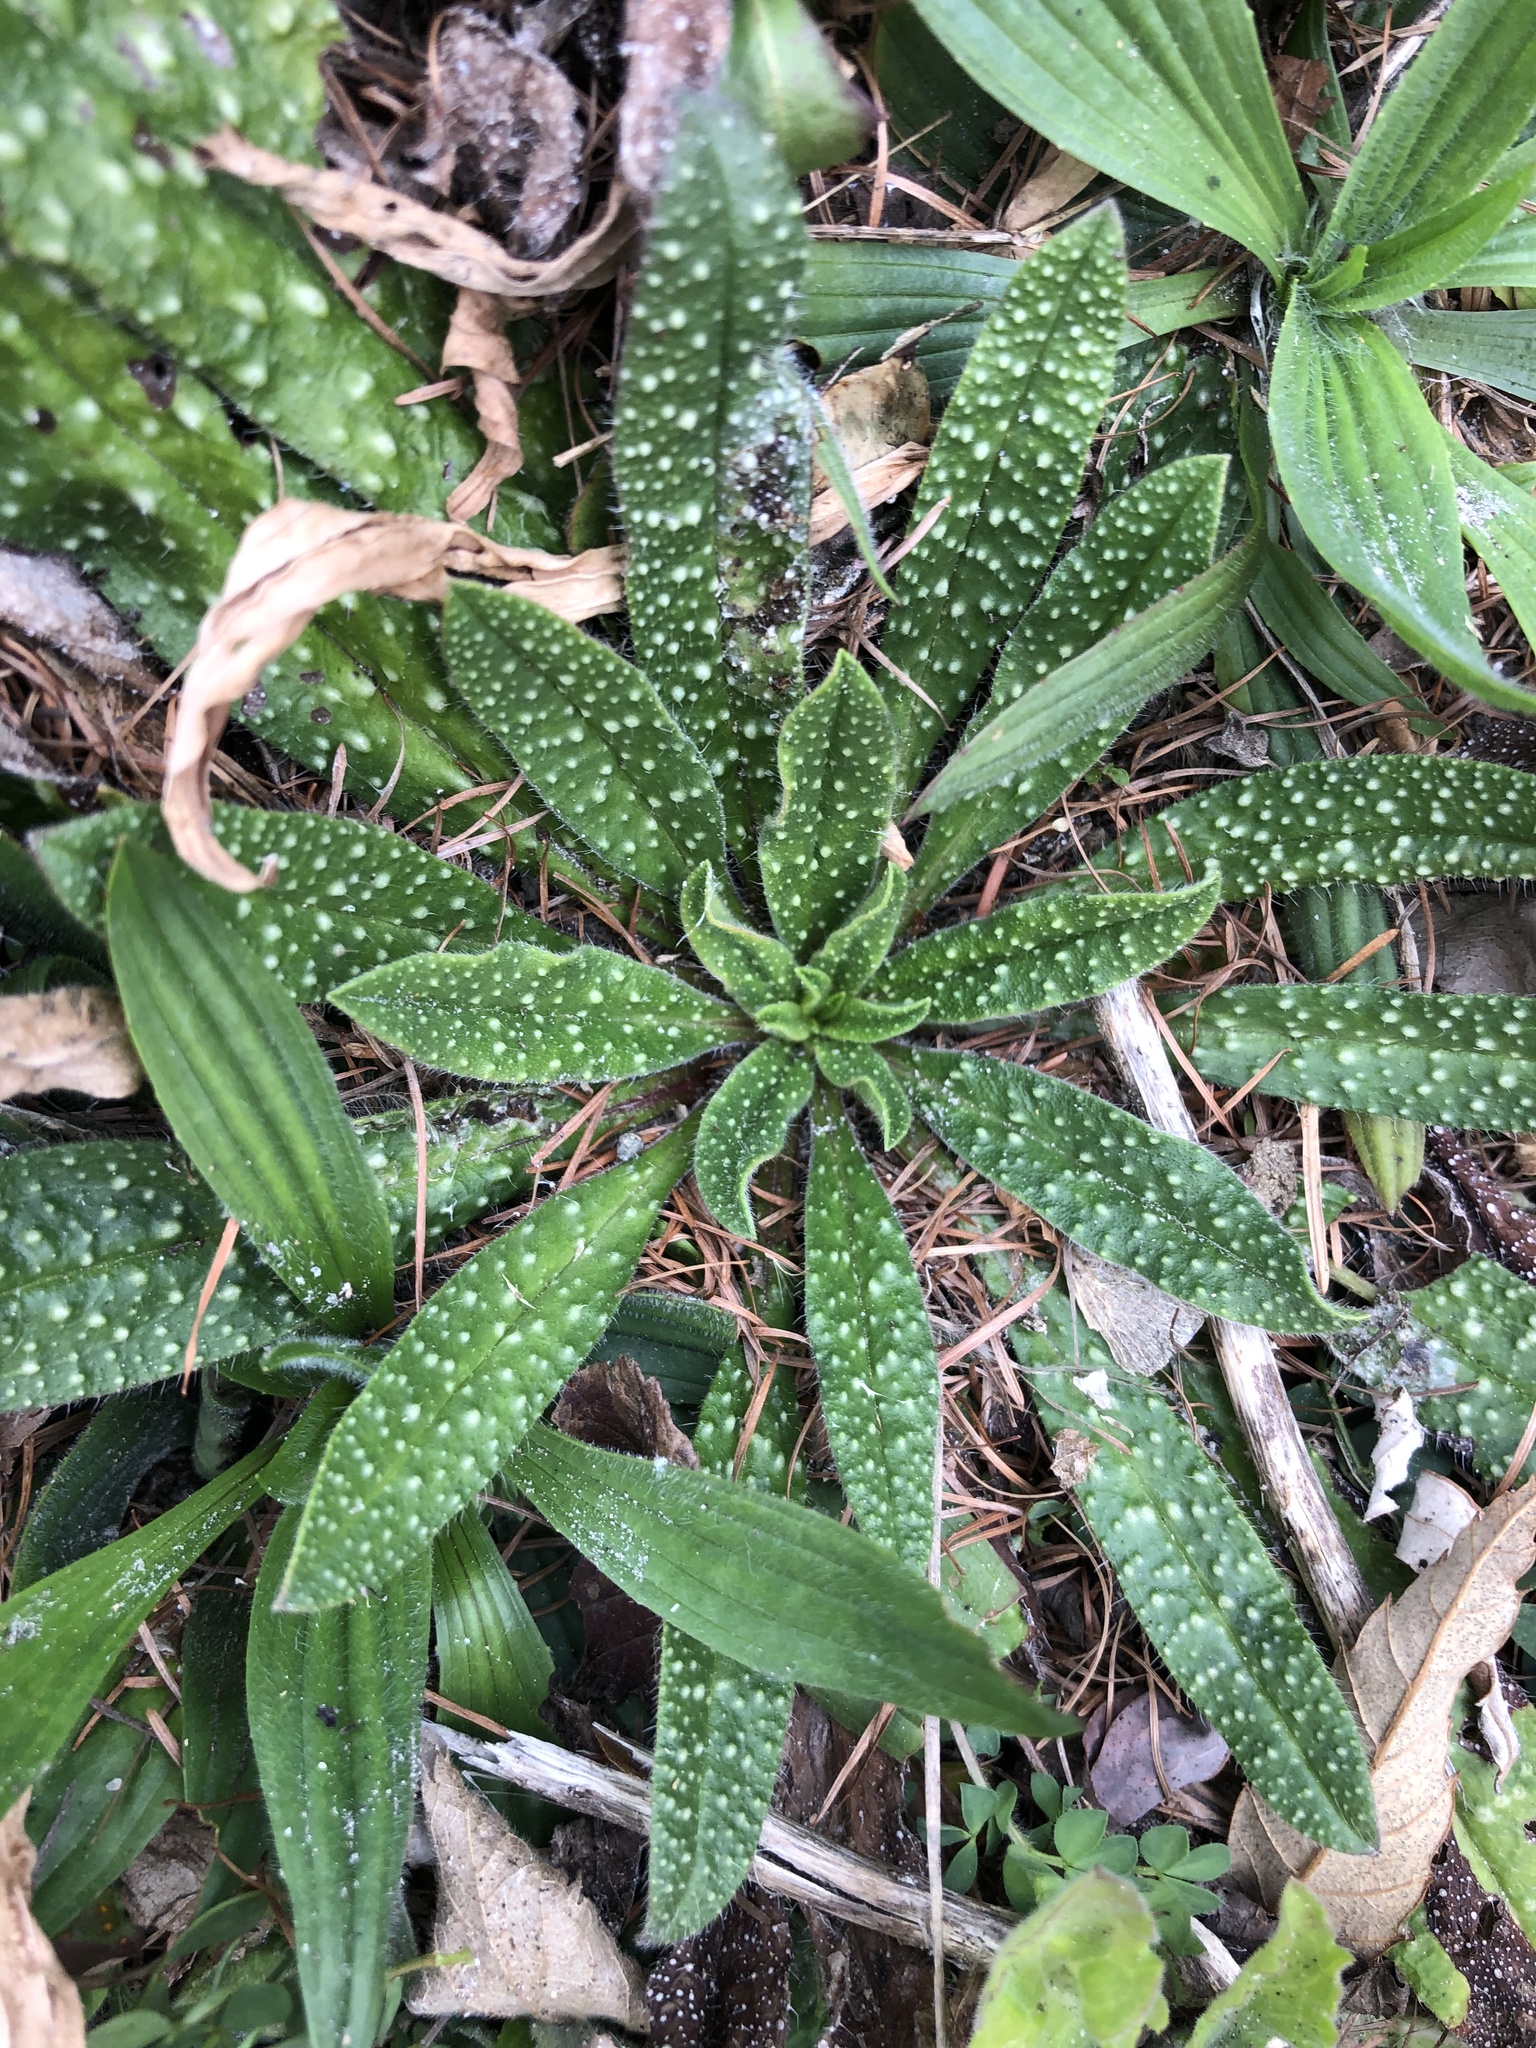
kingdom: Plantae
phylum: Tracheophyta
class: Magnoliopsida
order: Boraginales
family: Boraginaceae
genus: Echium
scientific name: Echium vulgare
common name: Common viper's bugloss
